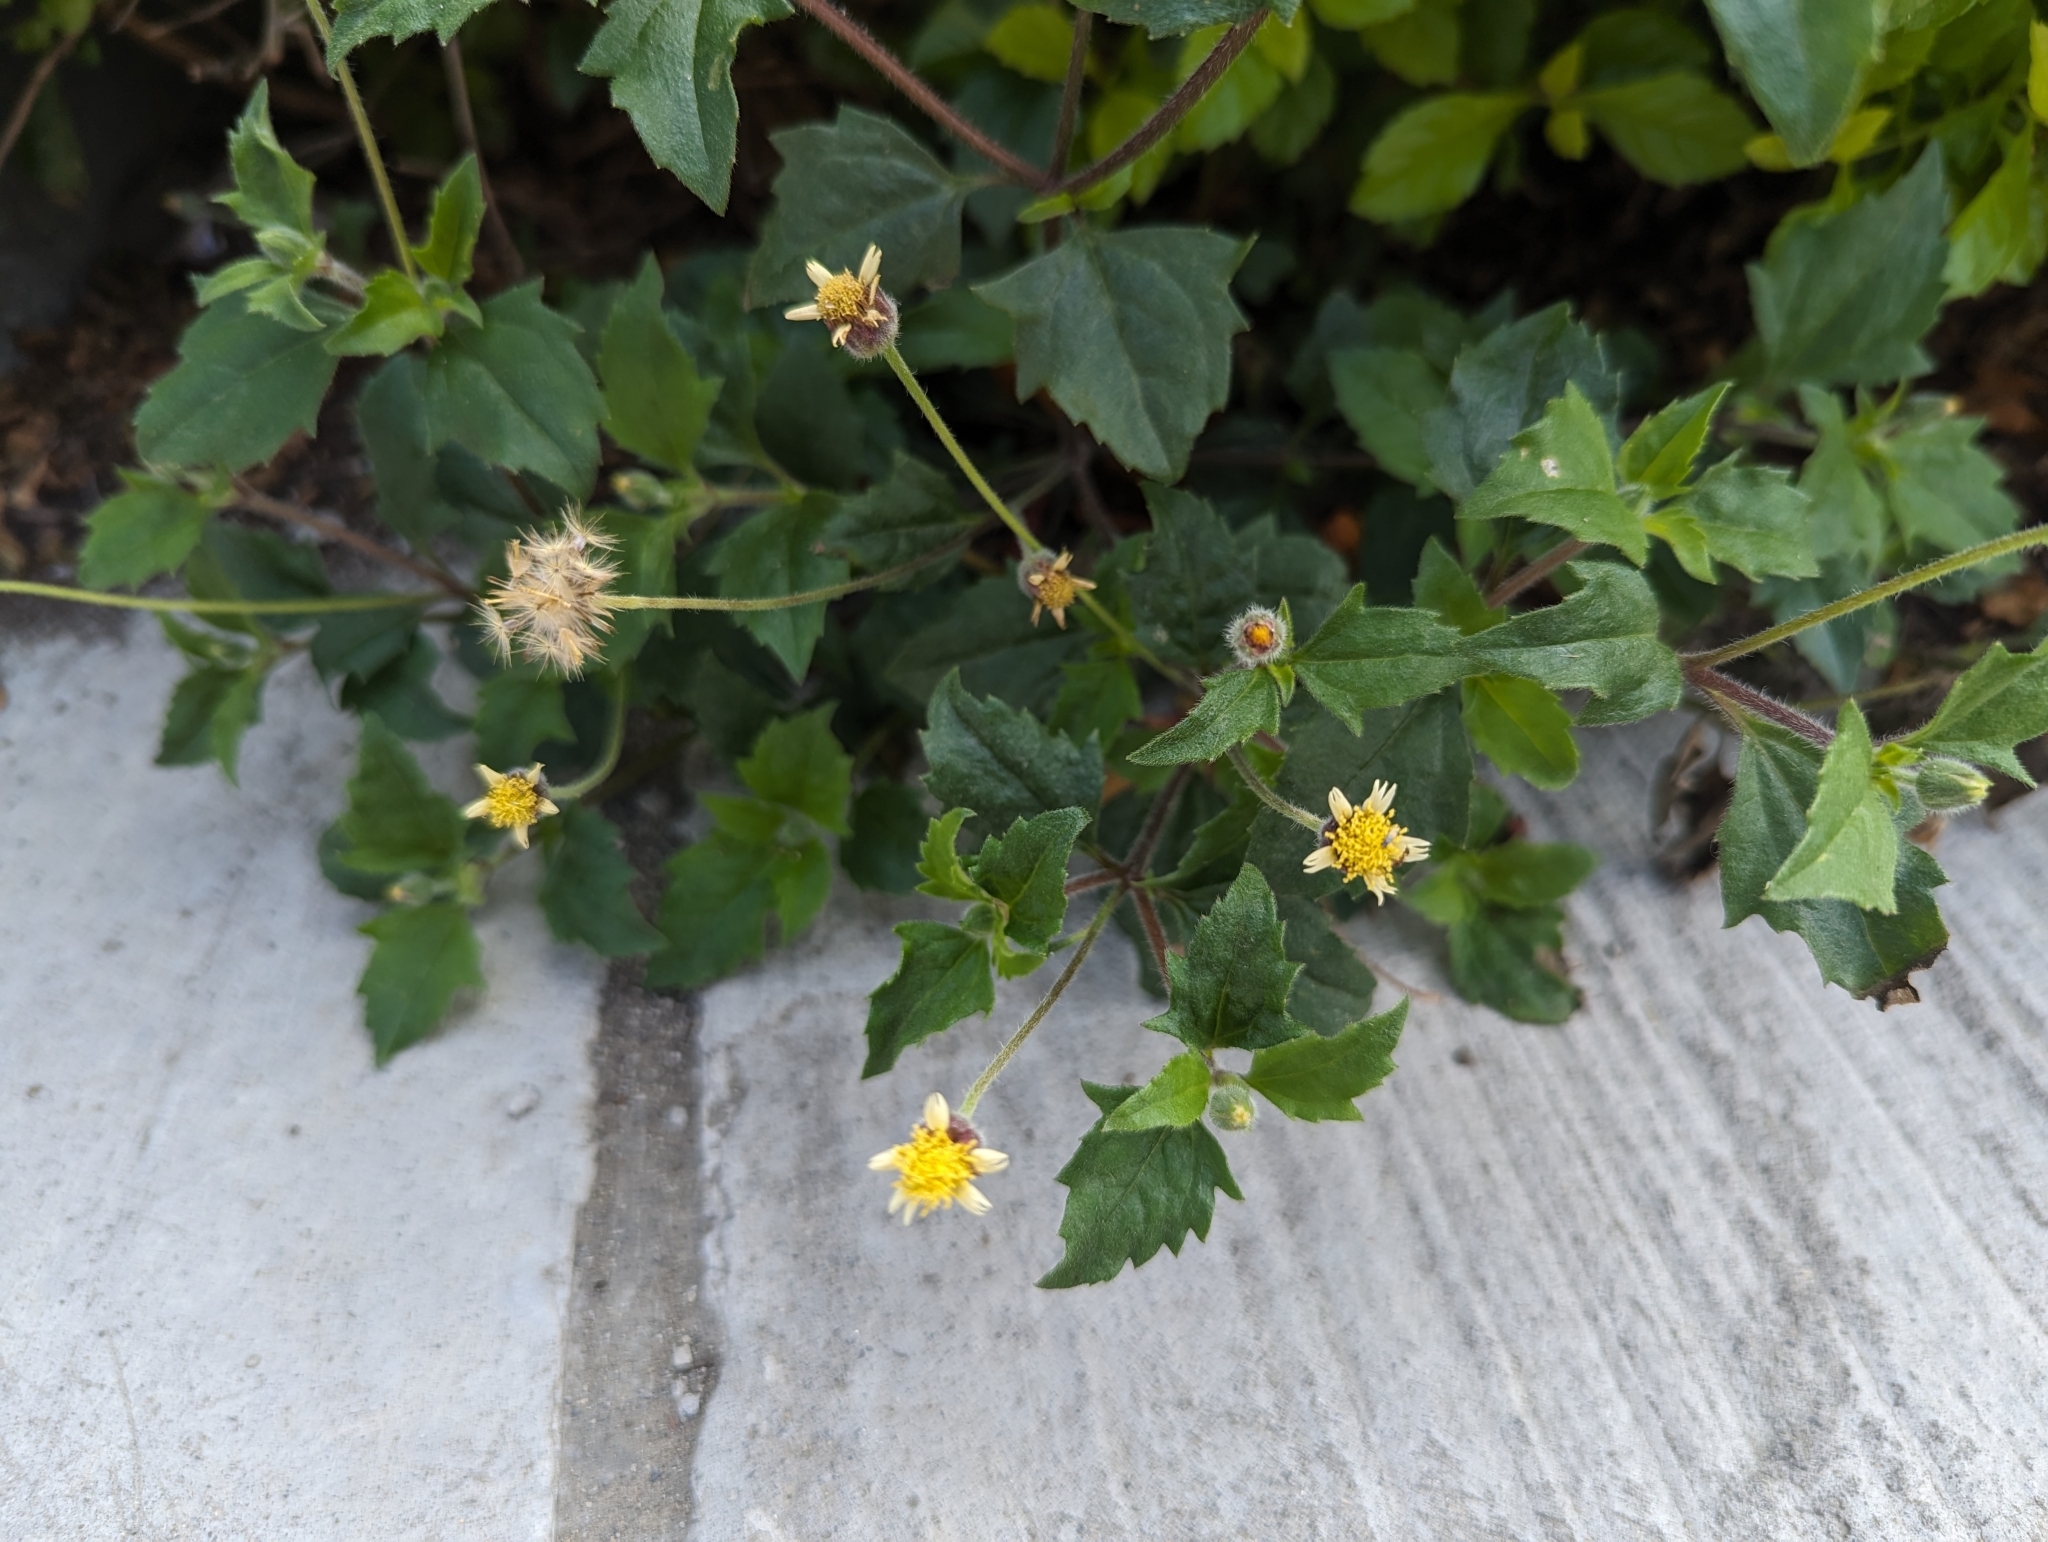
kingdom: Plantae
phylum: Tracheophyta
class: Magnoliopsida
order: Asterales
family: Asteraceae
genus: Tridax
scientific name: Tridax procumbens
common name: Coatbuttons
